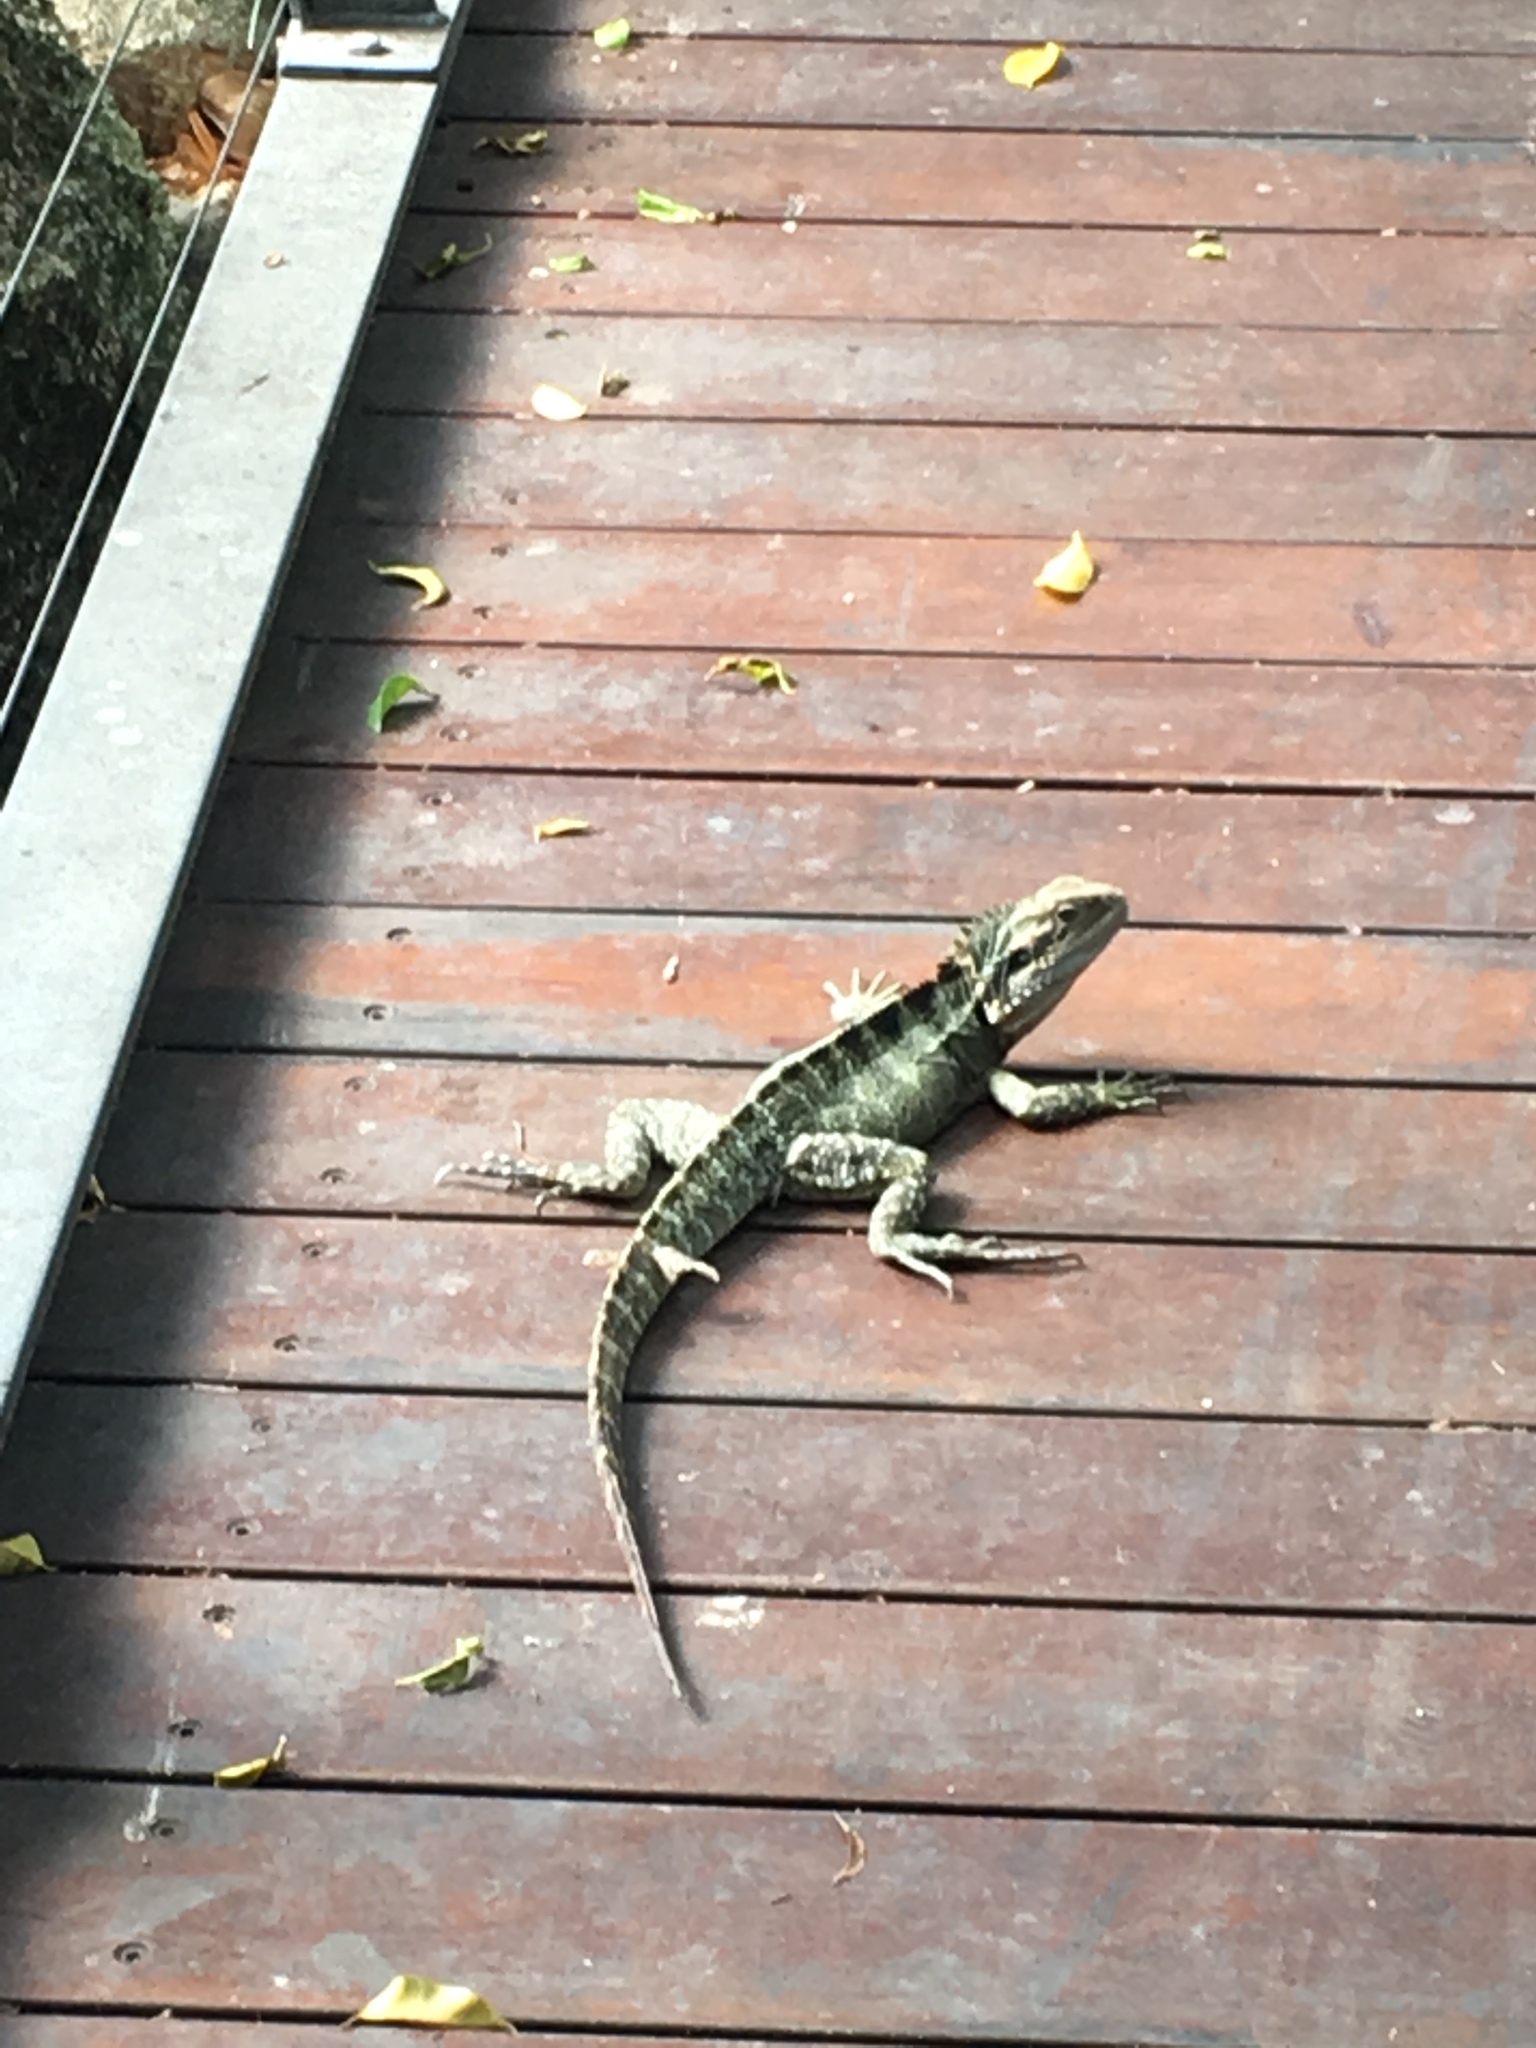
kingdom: Animalia
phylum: Chordata
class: Squamata
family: Agamidae
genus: Intellagama
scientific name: Intellagama lesueurii
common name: Eastern water dragon
